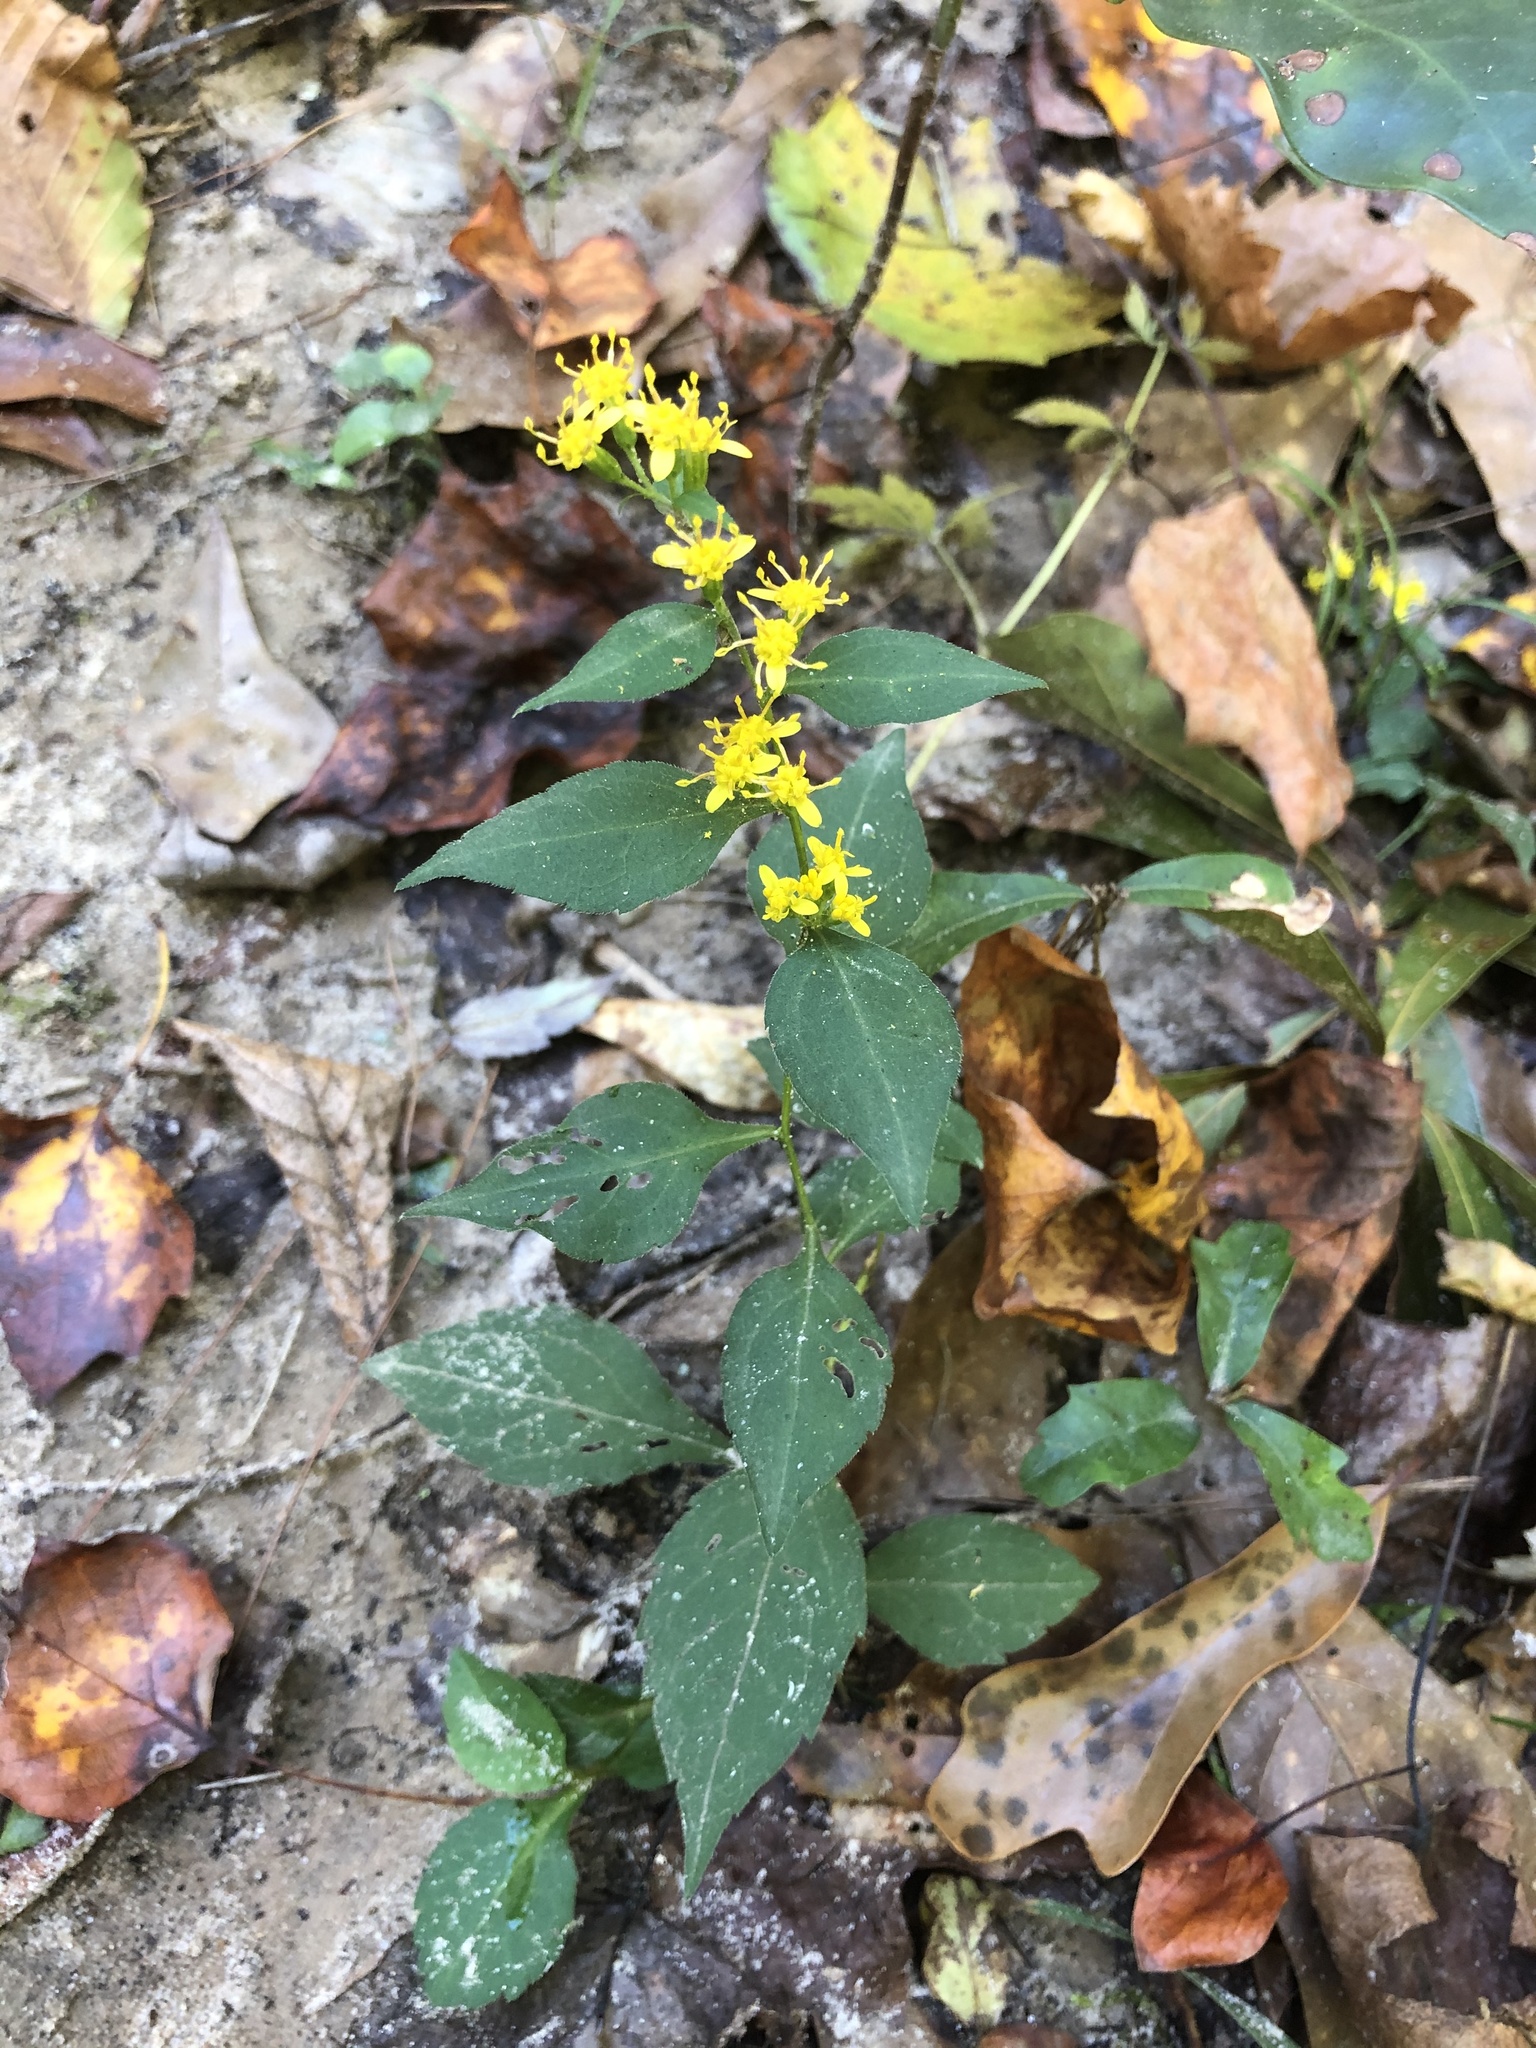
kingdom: Plantae
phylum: Tracheophyta
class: Magnoliopsida
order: Asterales
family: Asteraceae
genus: Solidago
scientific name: Solidago zedia
